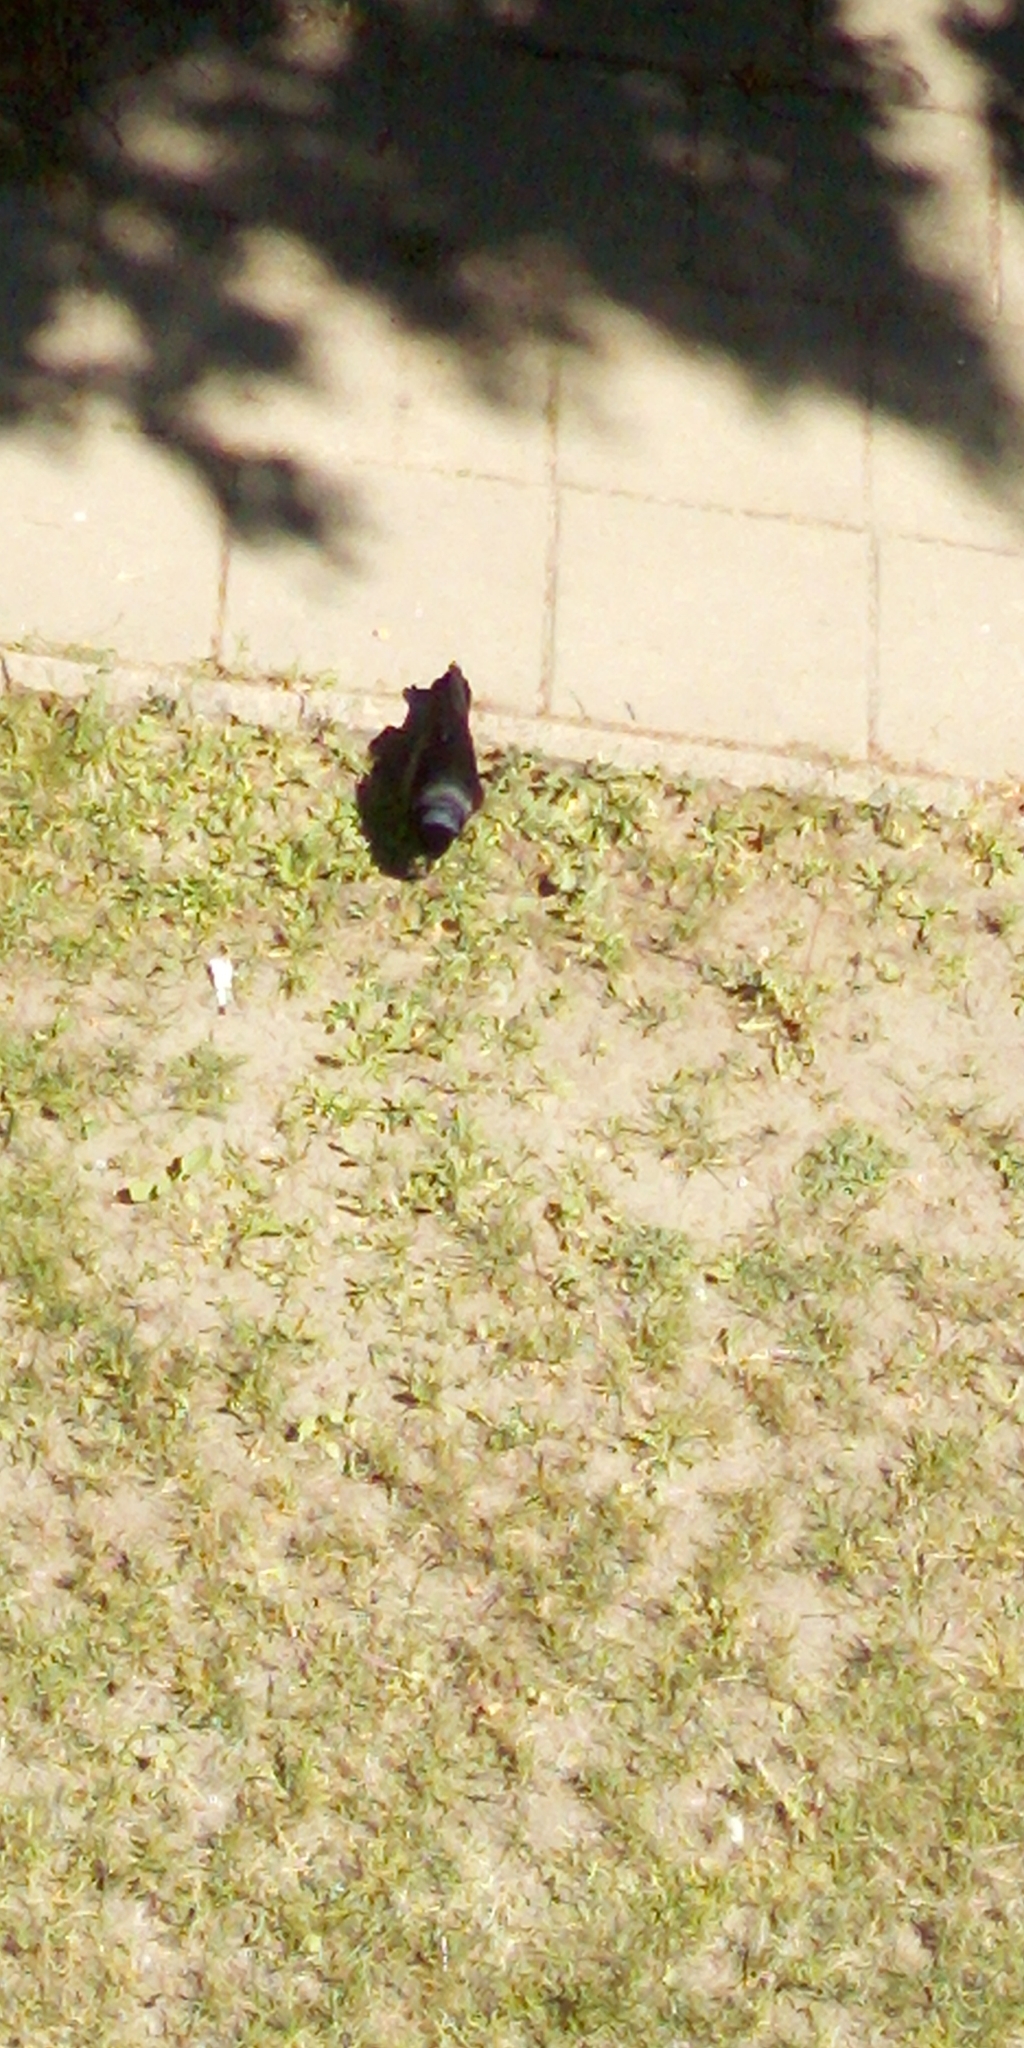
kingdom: Animalia
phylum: Chordata
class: Aves
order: Passeriformes
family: Corvidae
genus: Corvus
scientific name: Corvus frugilegus
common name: Rook
